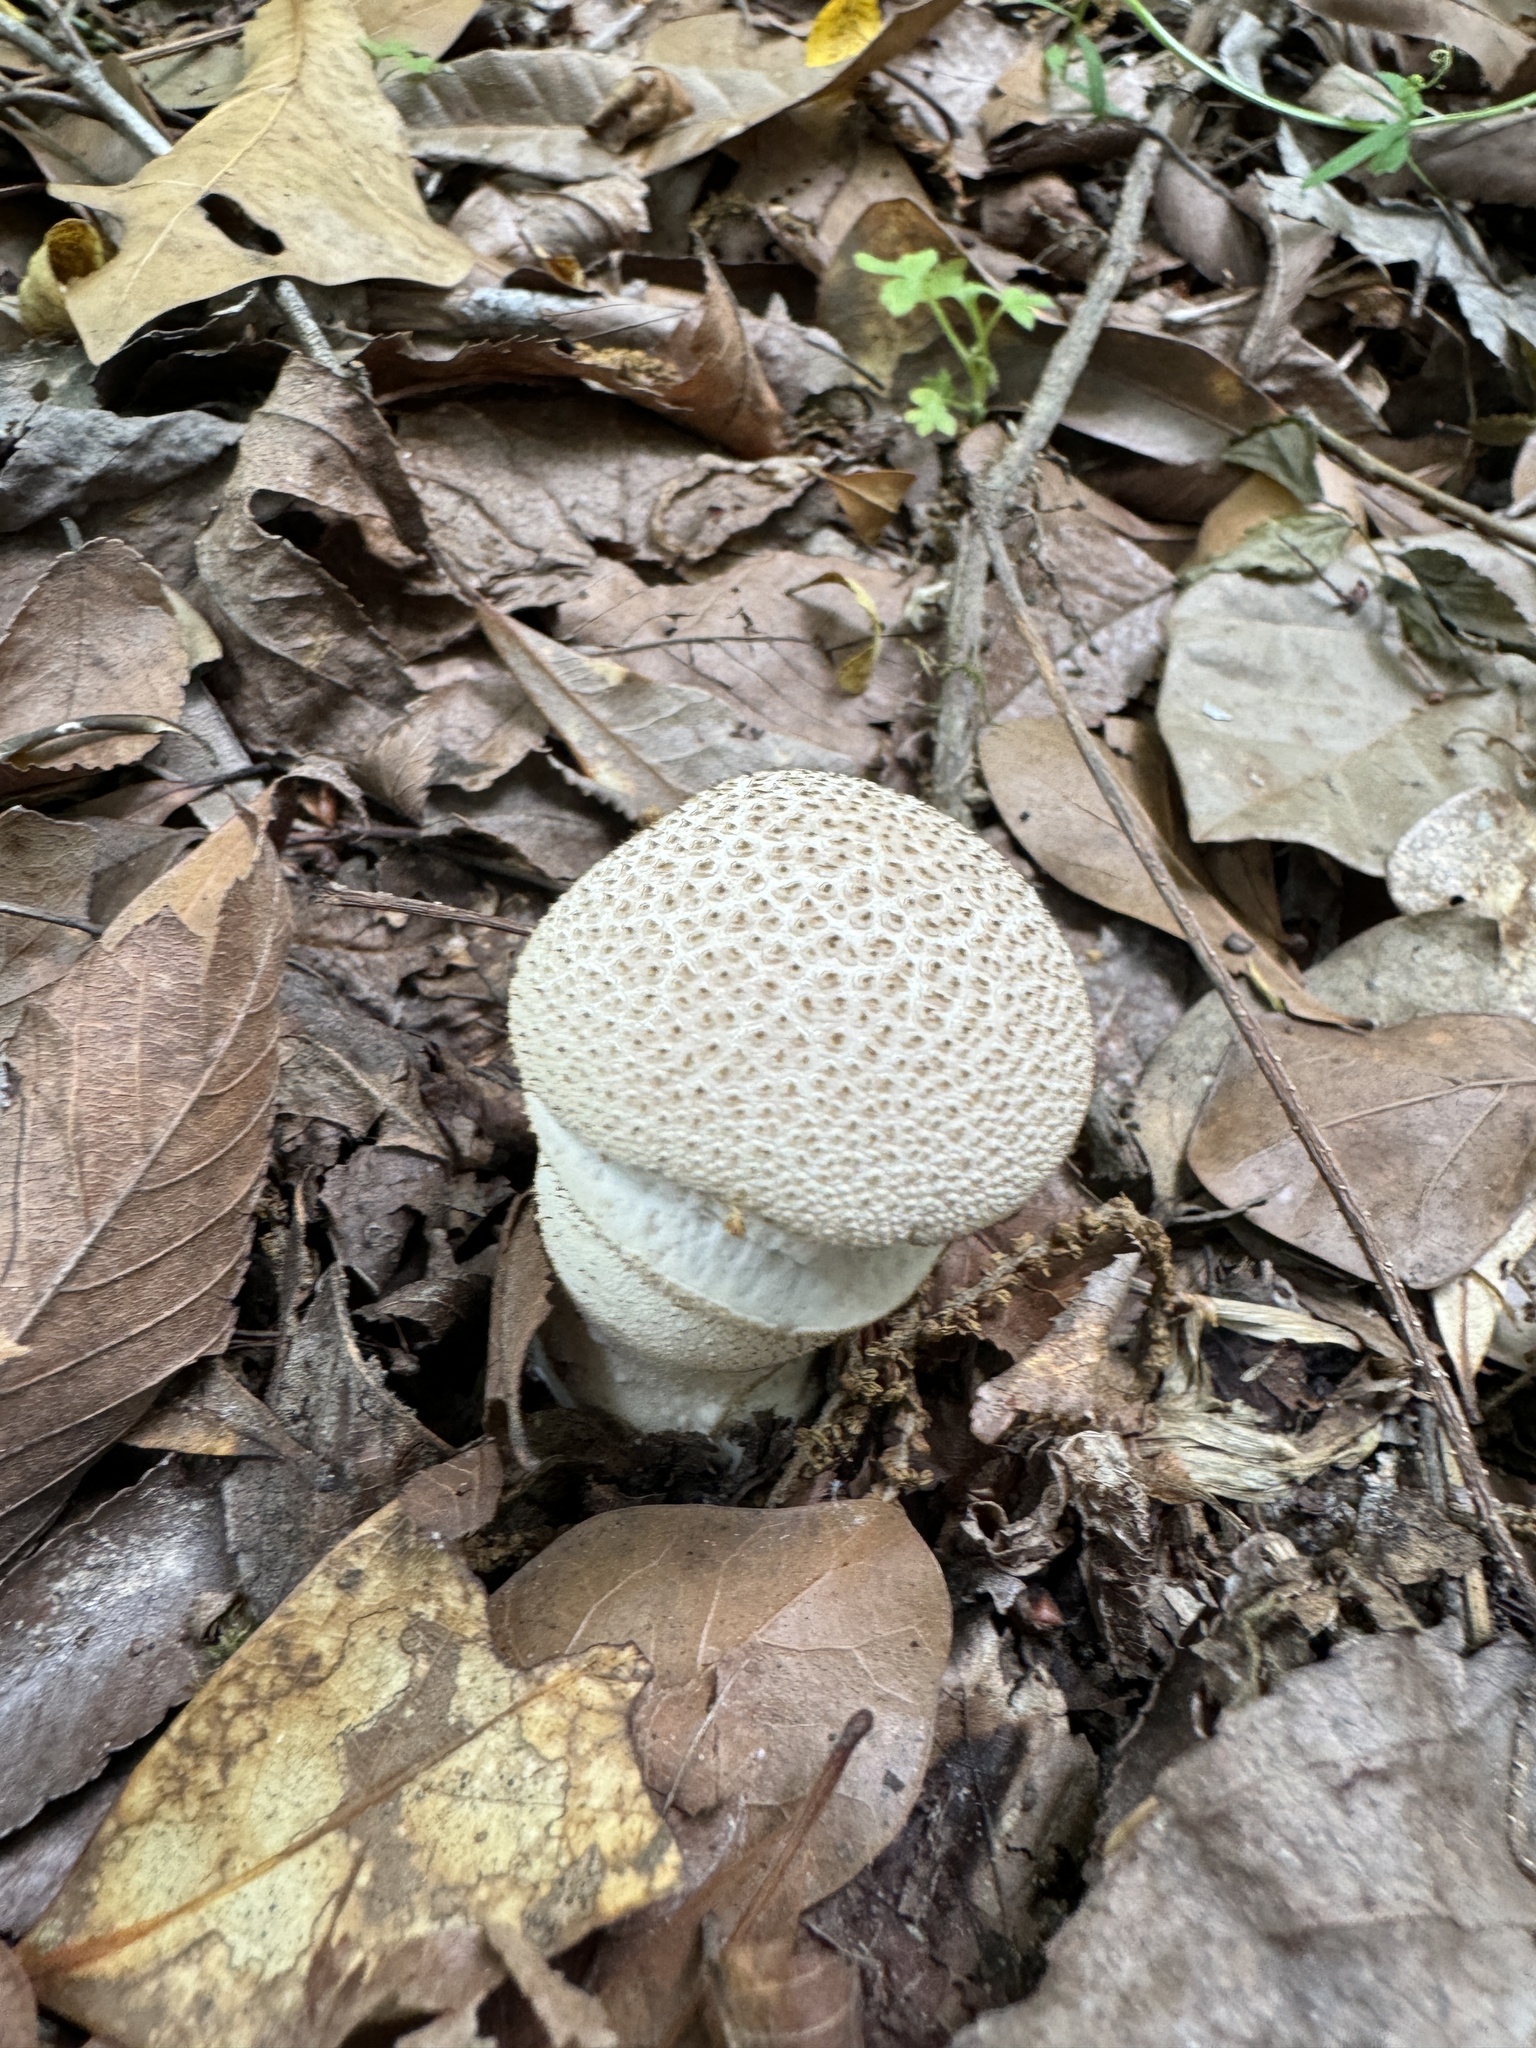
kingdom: Fungi
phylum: Basidiomycota
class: Agaricomycetes
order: Agaricales
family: Lycoperdaceae
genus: Lycoperdon
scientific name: Lycoperdon perlatum
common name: Common puffball
